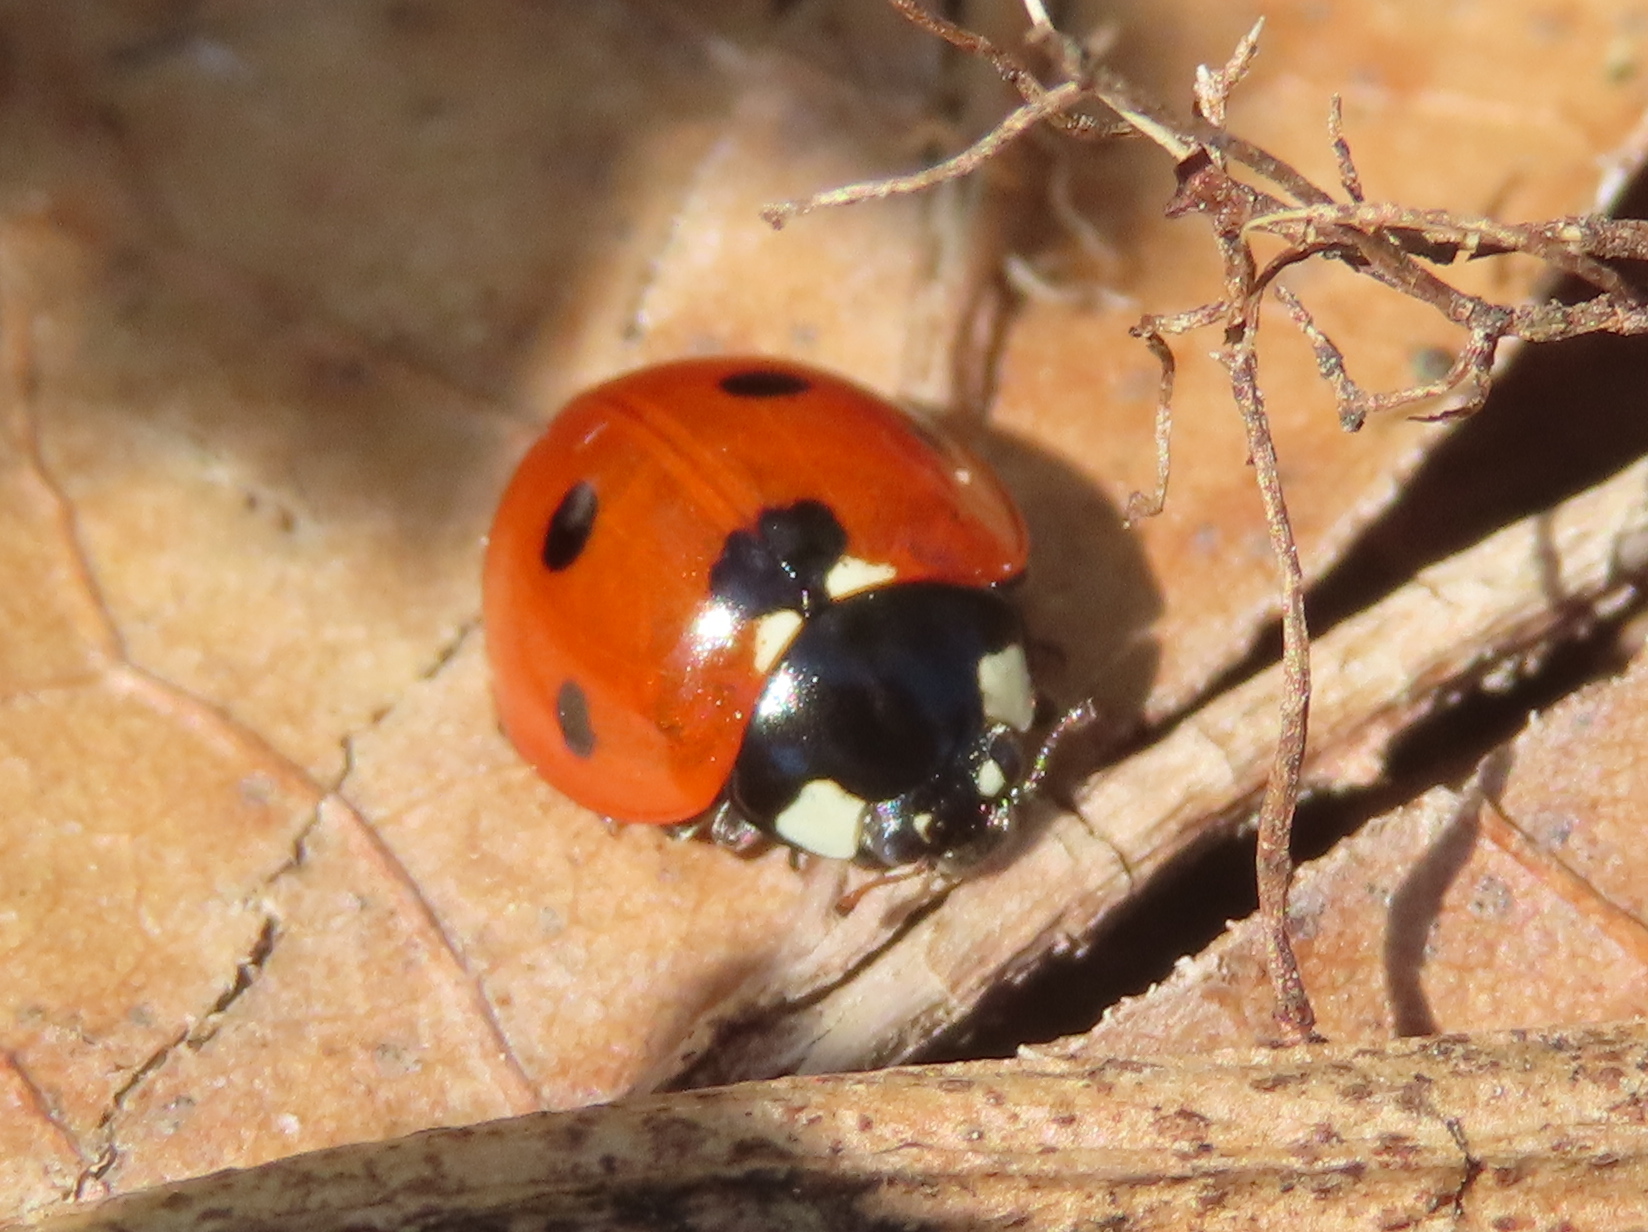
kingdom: Animalia
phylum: Arthropoda
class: Insecta
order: Coleoptera
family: Coccinellidae
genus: Coccinella
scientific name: Coccinella septempunctata
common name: Sevenspotted lady beetle
